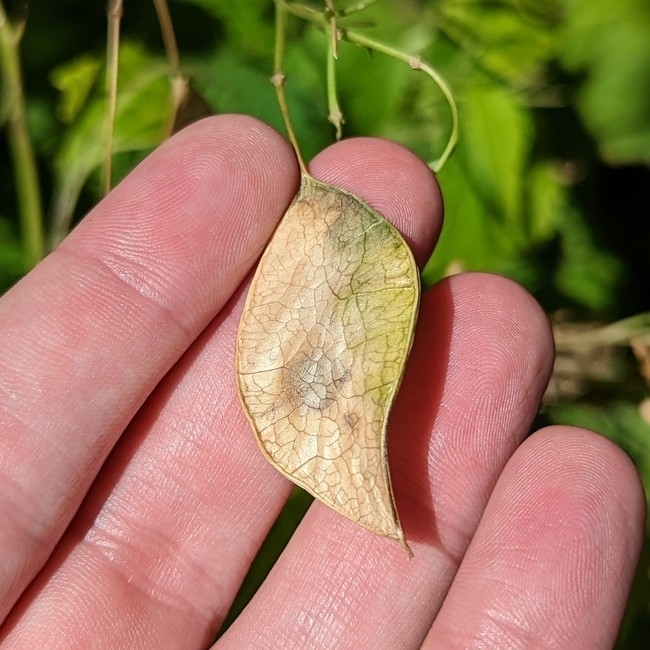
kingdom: Plantae
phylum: Tracheophyta
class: Magnoliopsida
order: Brassicales
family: Brassicaceae
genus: Lunaria
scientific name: Lunaria rediviva
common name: Perennial honesty
